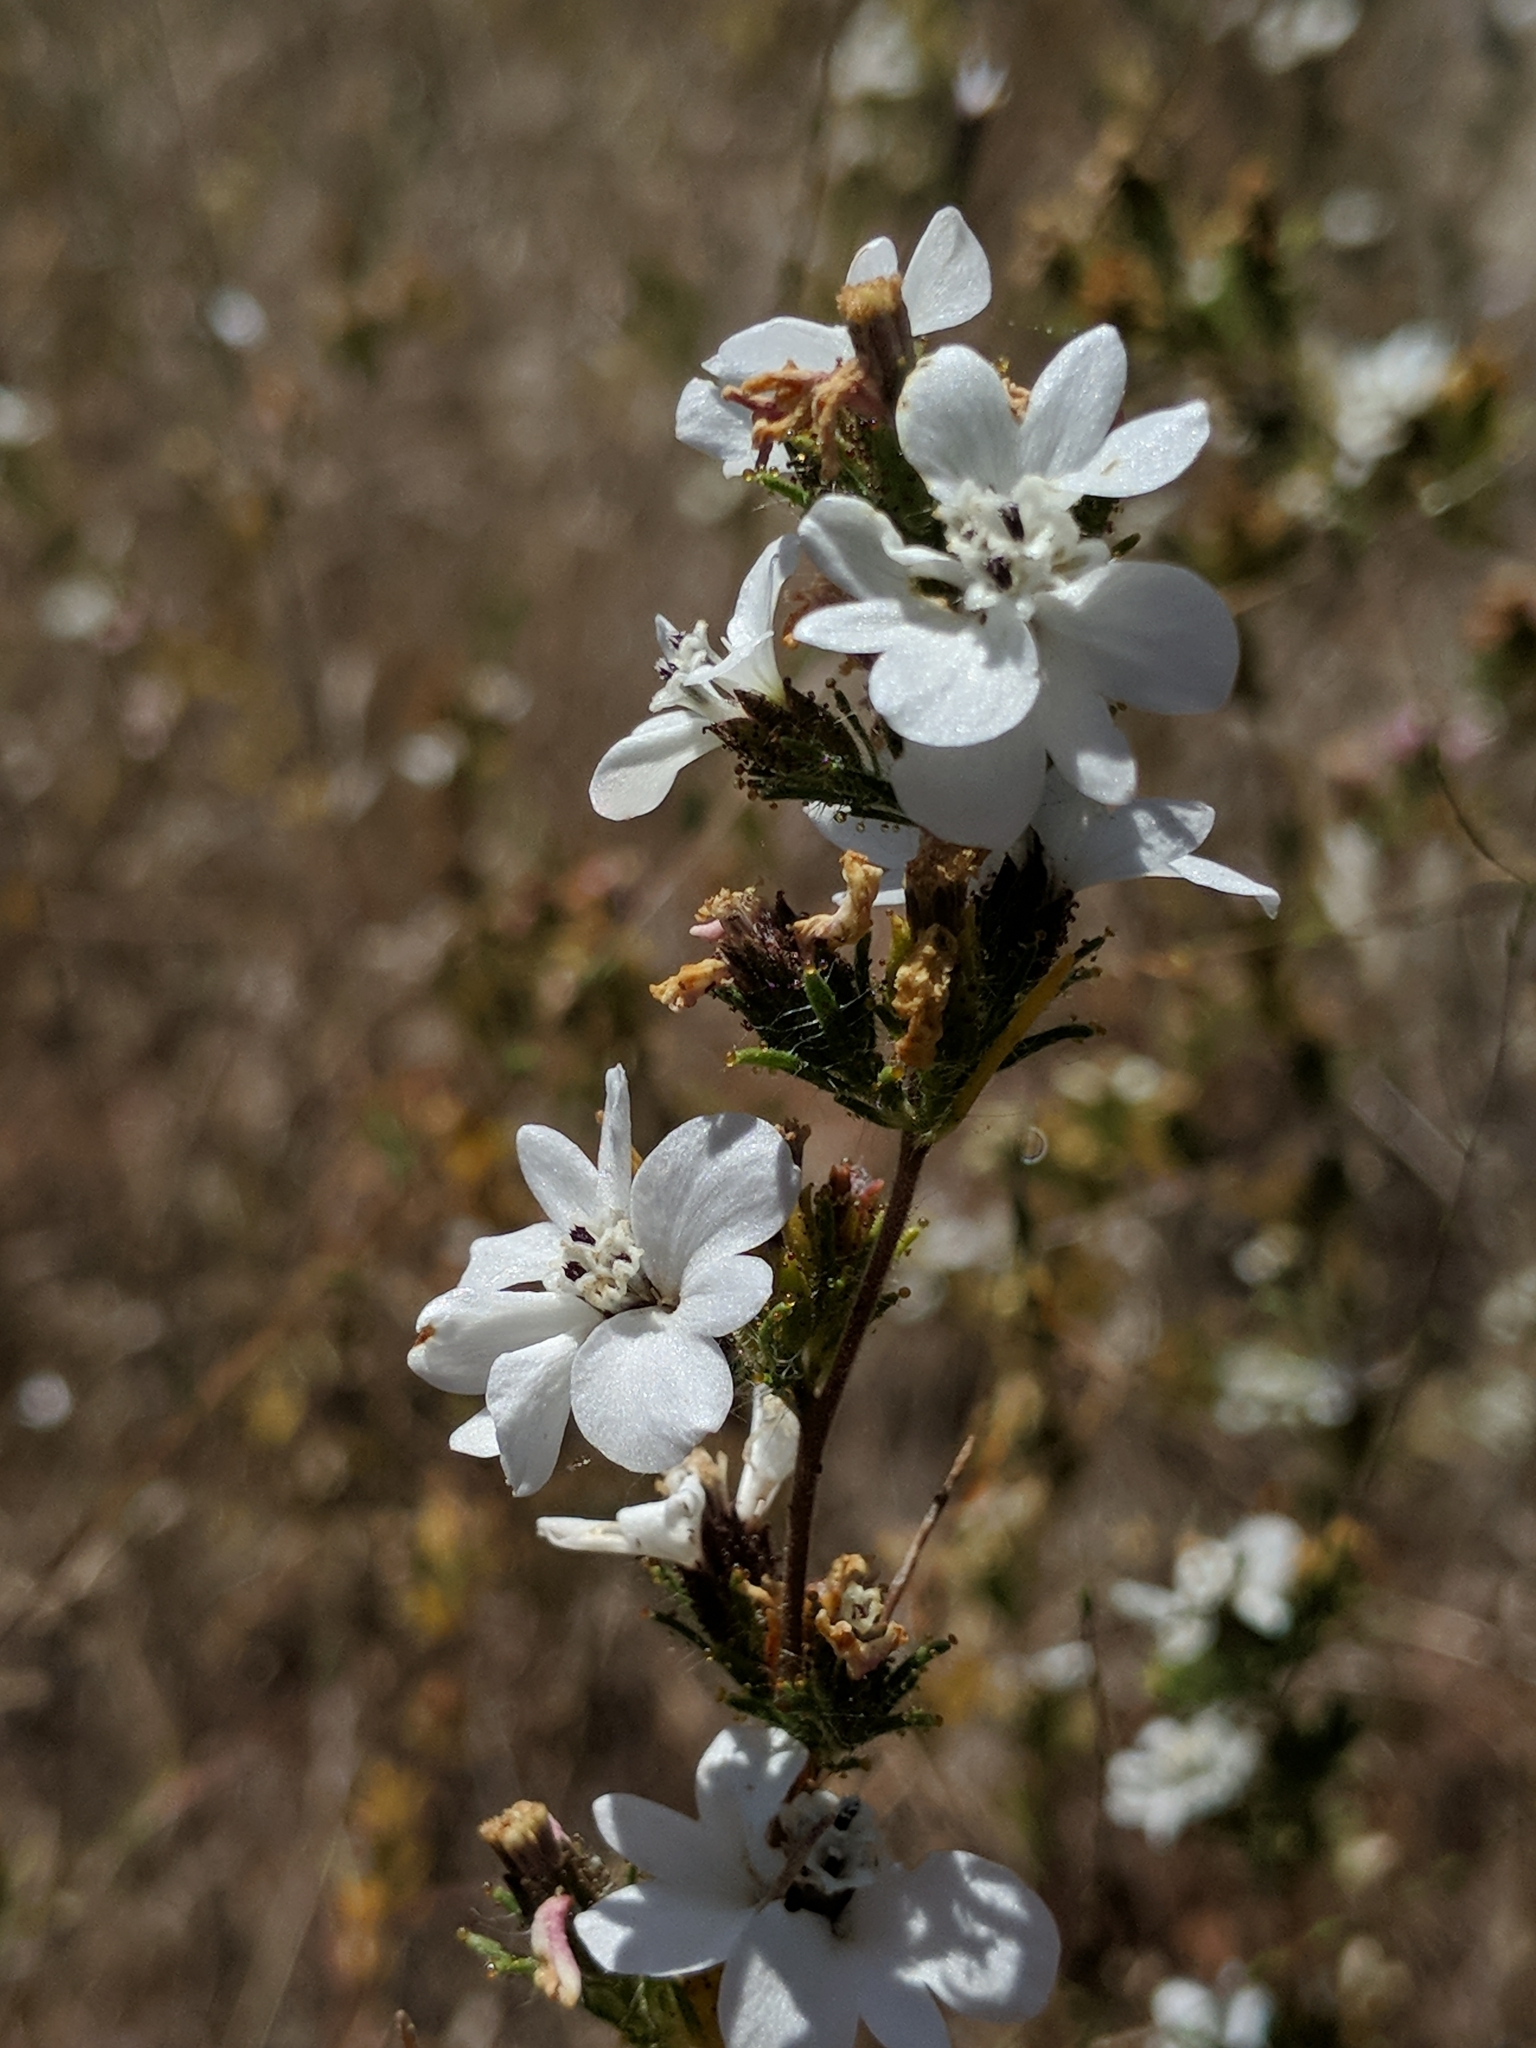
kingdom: Plantae
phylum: Tracheophyta
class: Magnoliopsida
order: Asterales
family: Asteraceae
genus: Calycadenia
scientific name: Calycadenia multiglandulosa
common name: Sticky calycadenia
